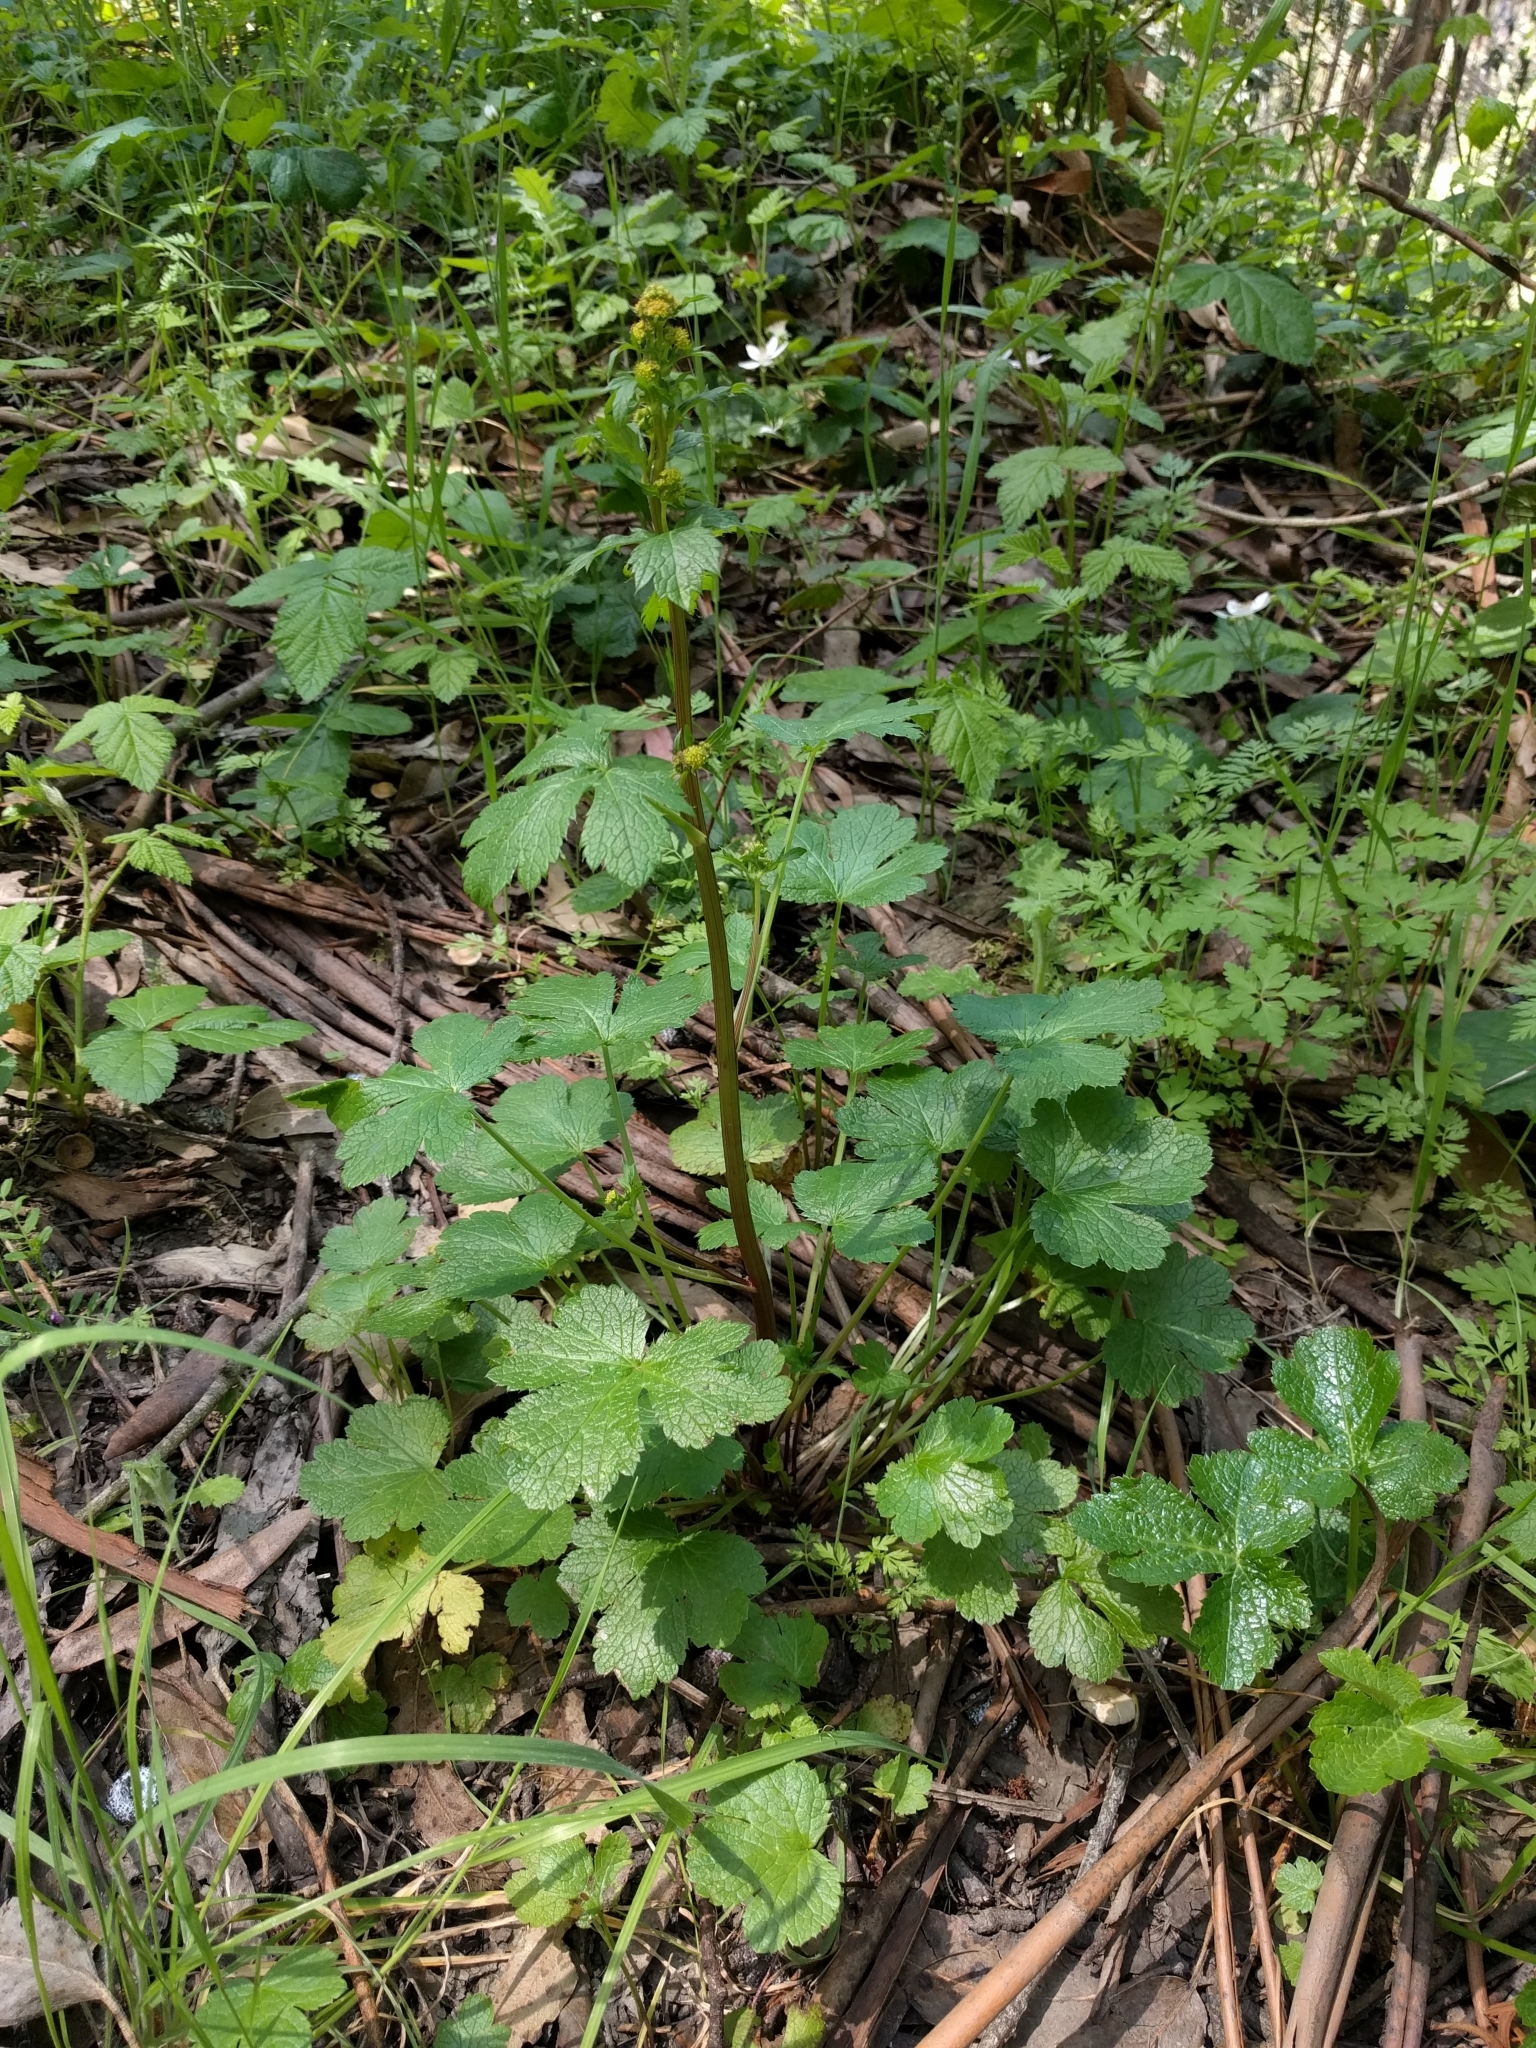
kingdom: Plantae
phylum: Tracheophyta
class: Magnoliopsida
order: Apiales
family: Apiaceae
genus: Sanicula
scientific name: Sanicula crassicaulis
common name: Western snakeroot
